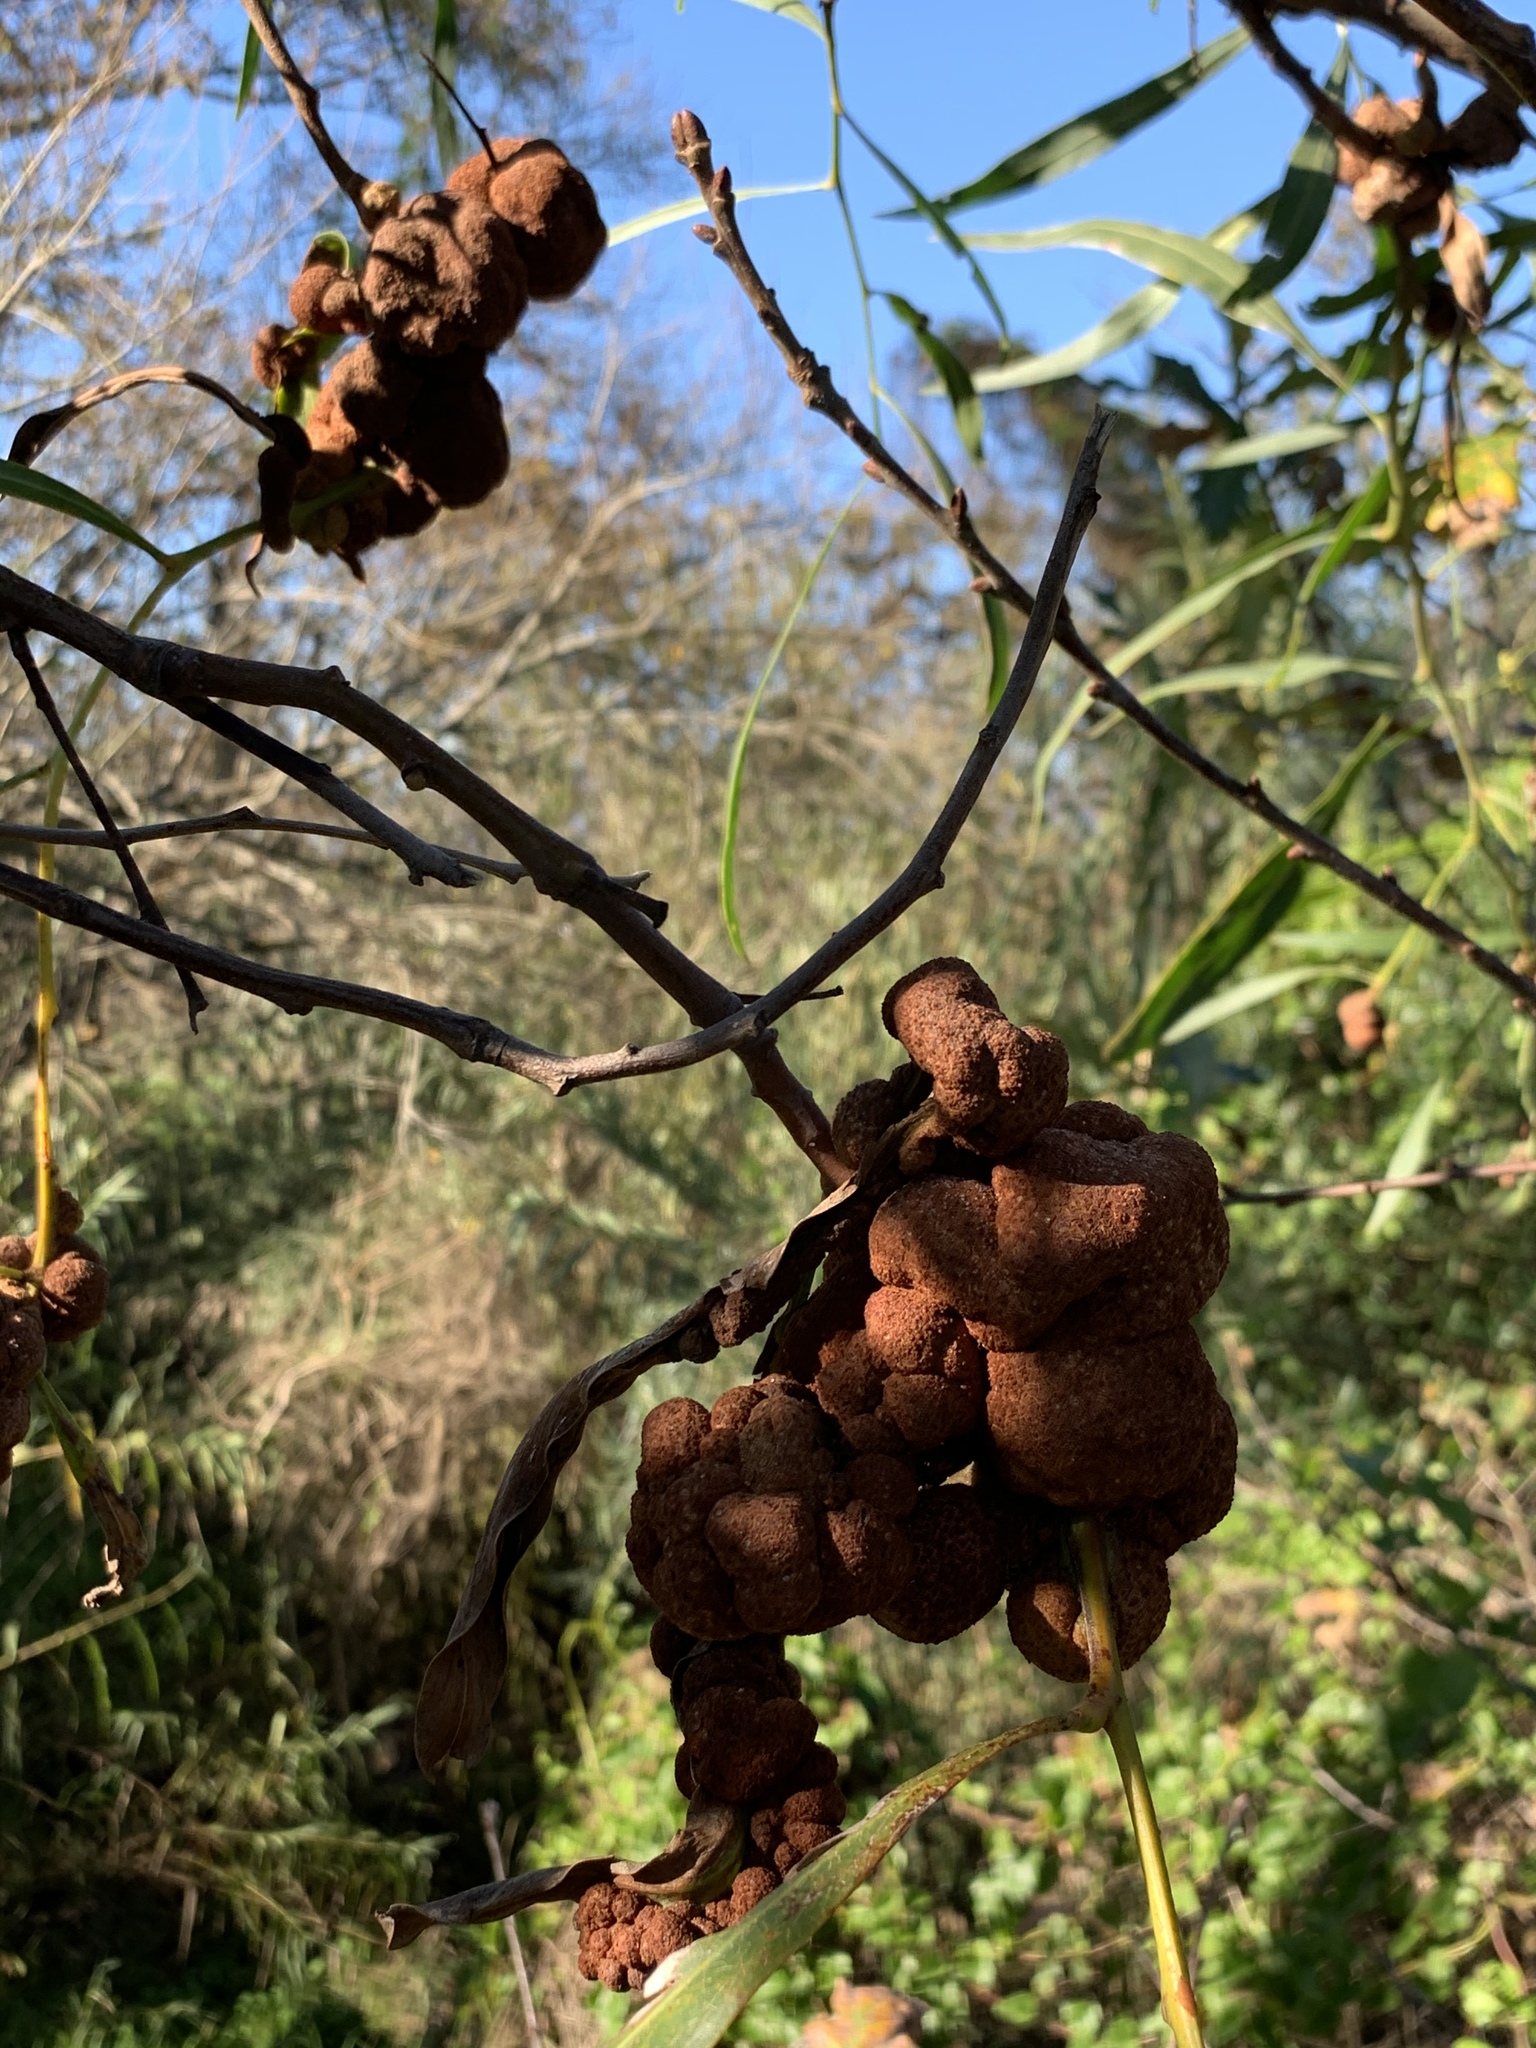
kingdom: Fungi
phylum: Basidiomycota
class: Pucciniomycetes
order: Pucciniales
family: Uromycladiaceae
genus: Uromycladium
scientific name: Uromycladium morrisii
